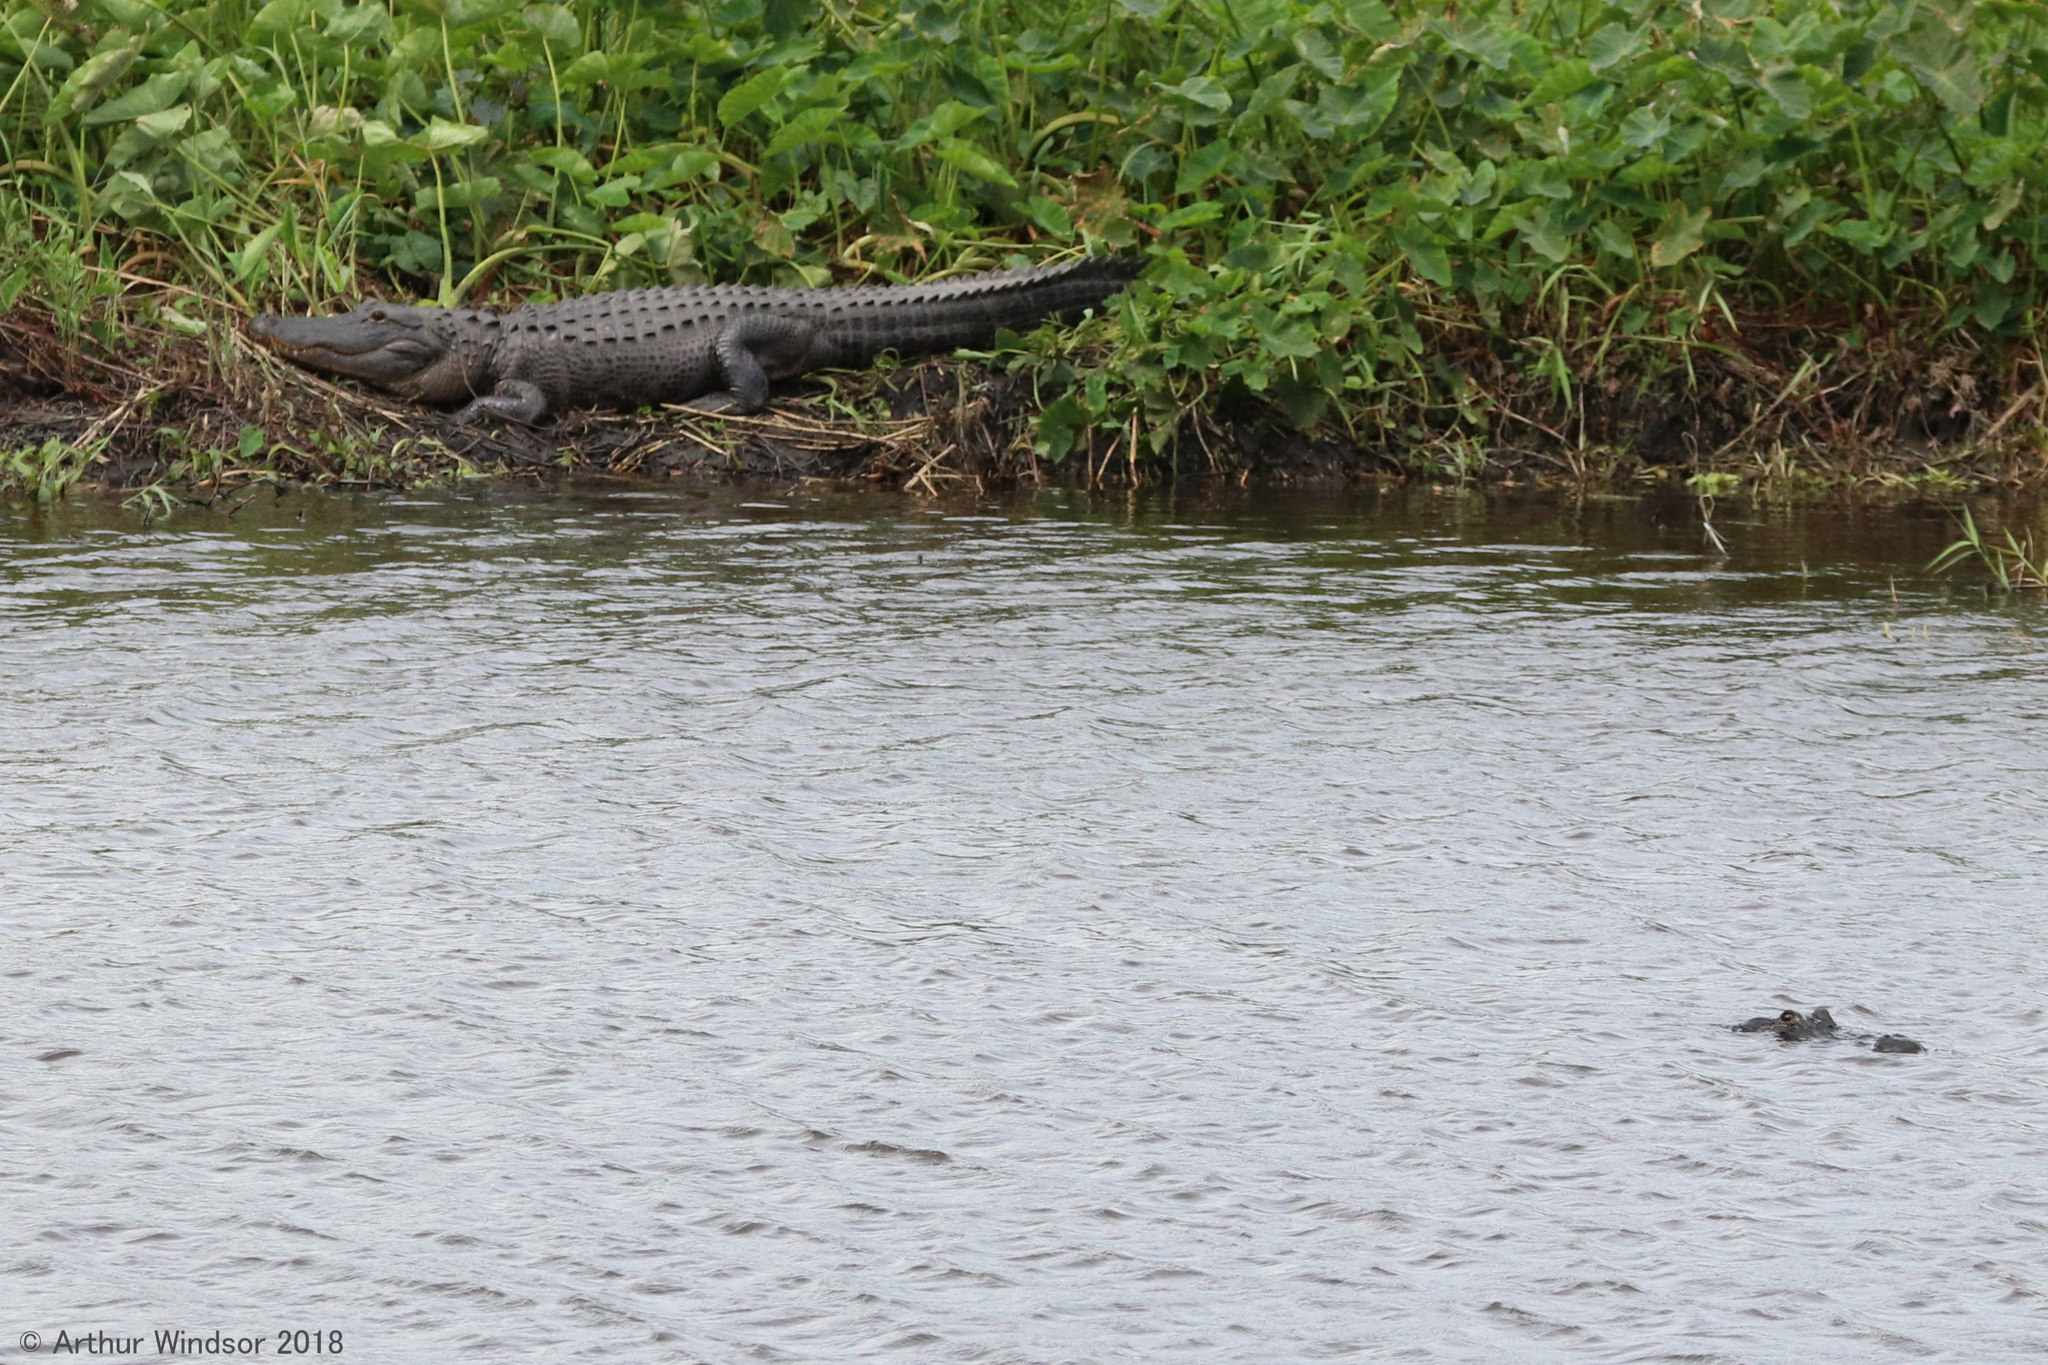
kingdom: Animalia
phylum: Chordata
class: Crocodylia
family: Alligatoridae
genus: Alligator
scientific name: Alligator mississippiensis
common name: American alligator
